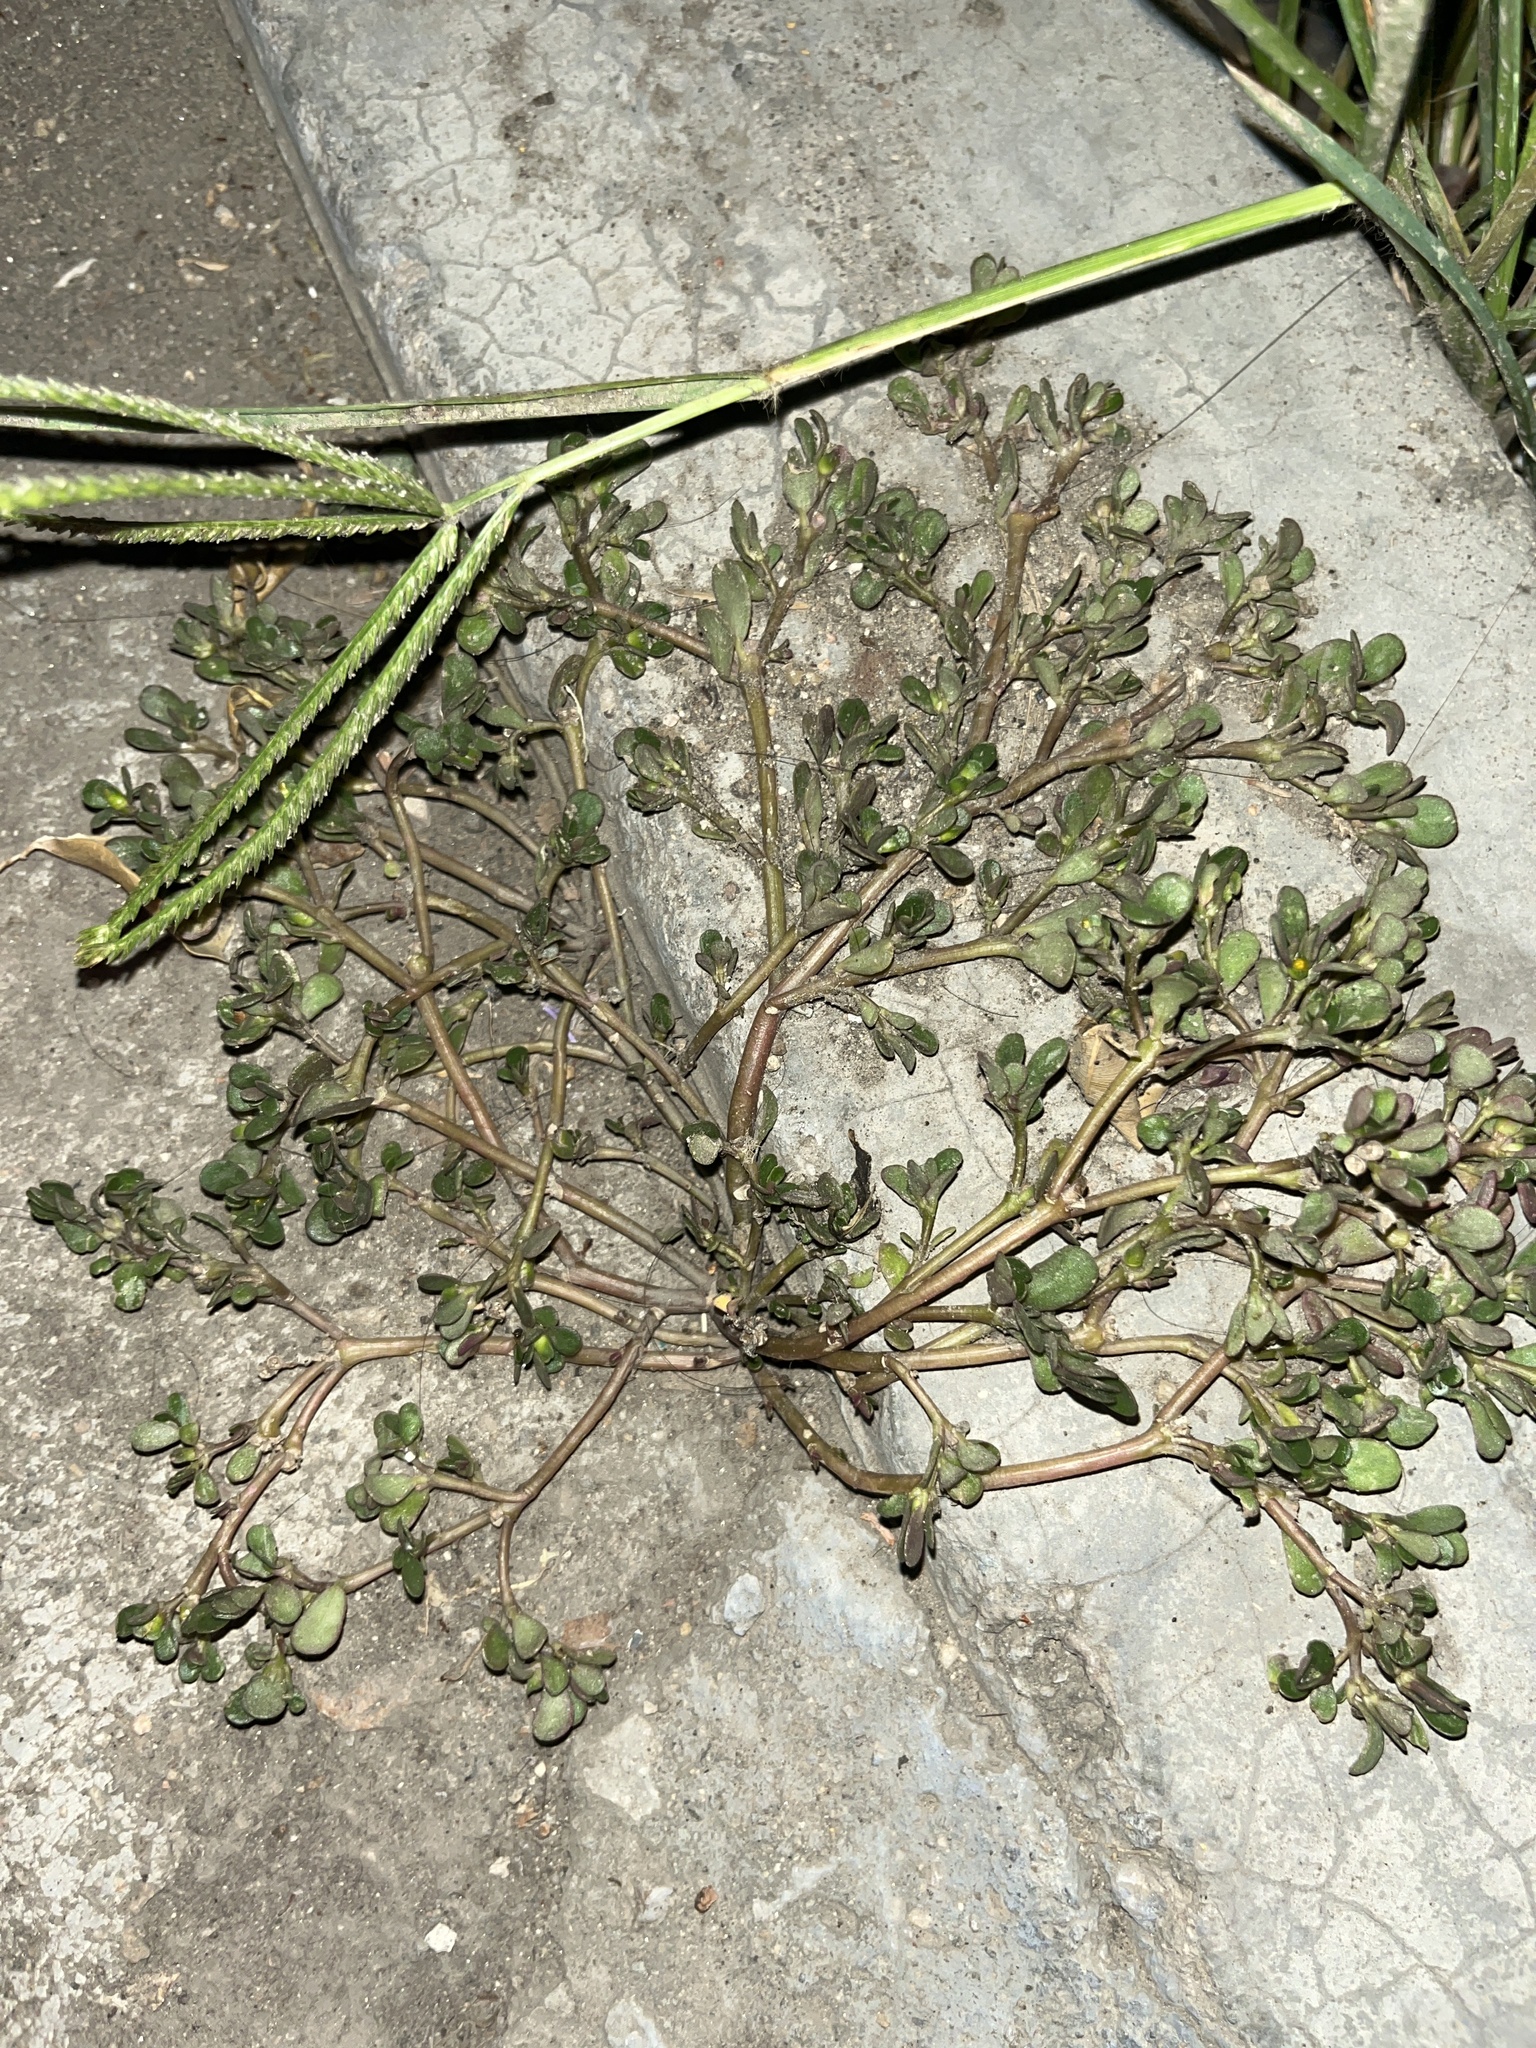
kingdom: Plantae
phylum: Tracheophyta
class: Magnoliopsida
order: Caryophyllales
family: Portulacaceae
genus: Portulaca
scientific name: Portulaca oleracea
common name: Common purslane
